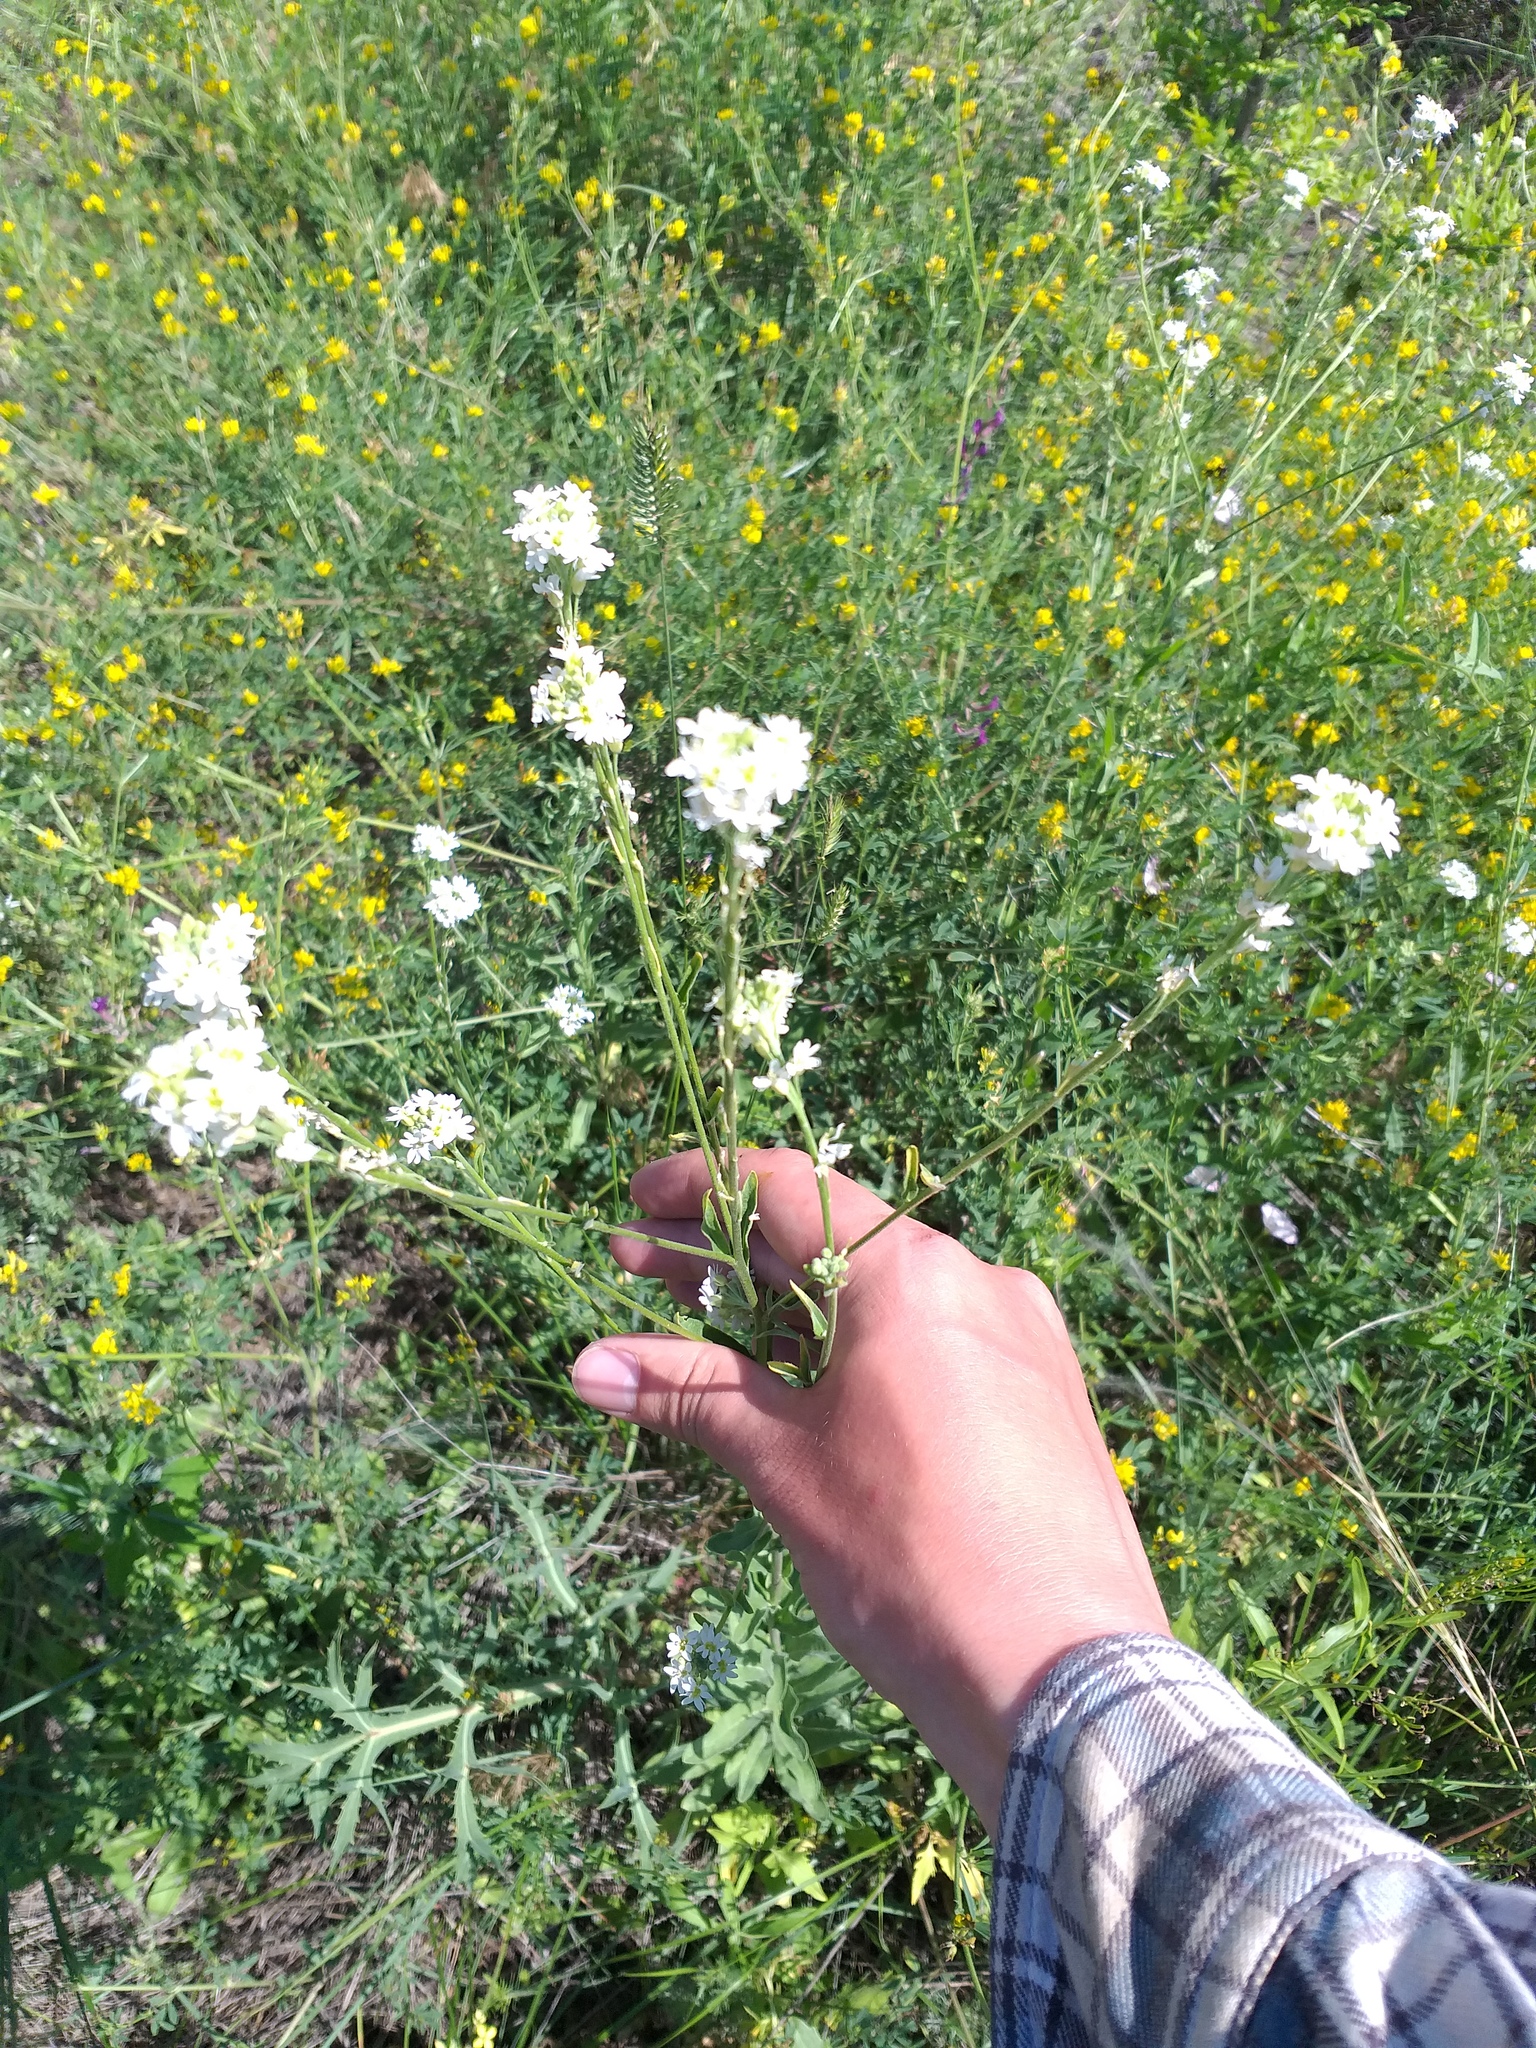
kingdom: Plantae
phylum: Tracheophyta
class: Magnoliopsida
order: Brassicales
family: Brassicaceae
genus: Berteroa
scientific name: Berteroa incana
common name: Hoary alison
